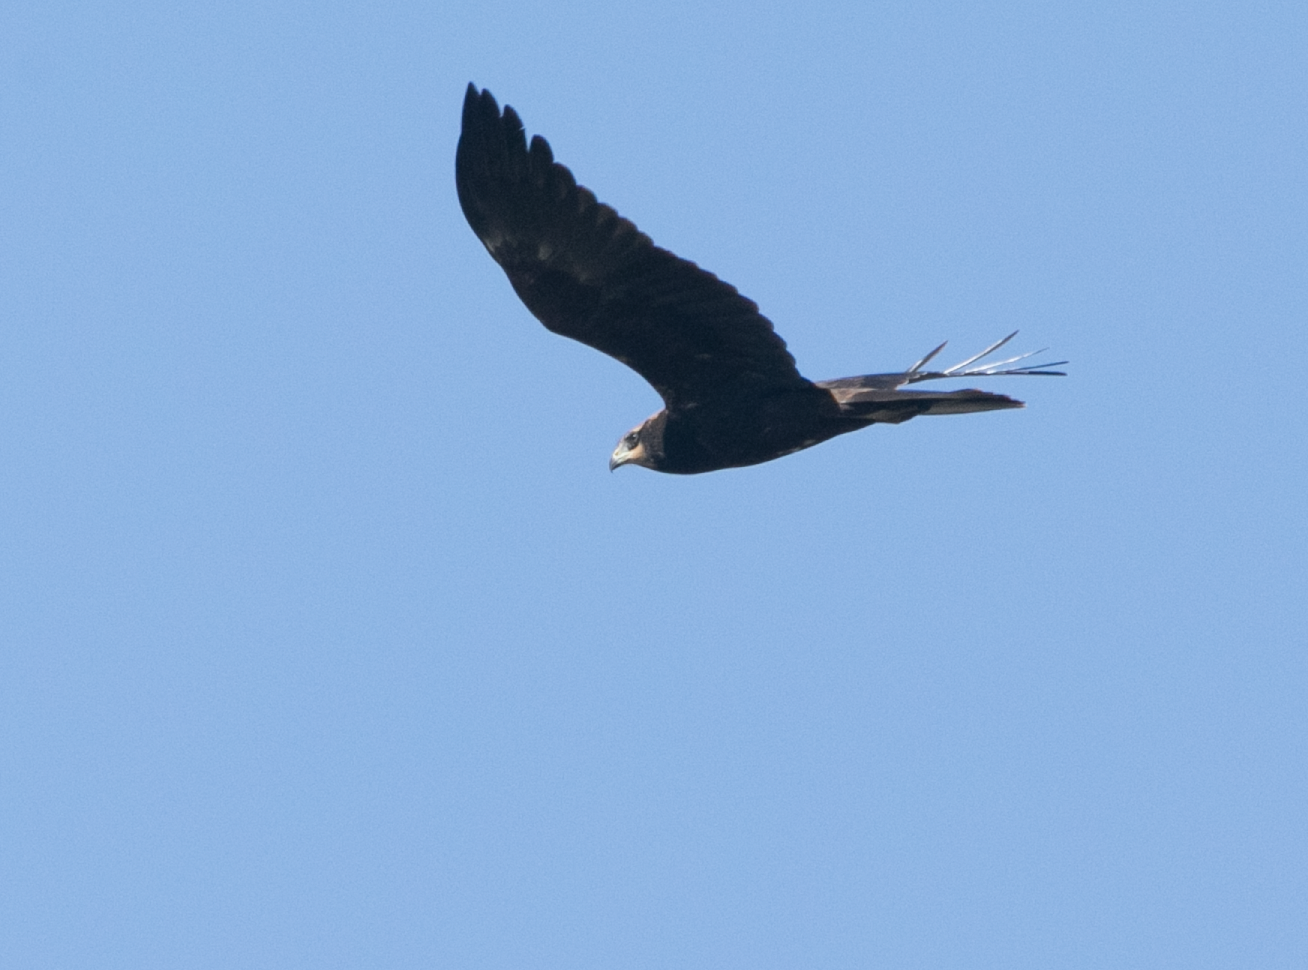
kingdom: Animalia
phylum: Chordata
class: Aves
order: Accipitriformes
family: Accipitridae
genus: Circus
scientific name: Circus aeruginosus
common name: Western marsh harrier
